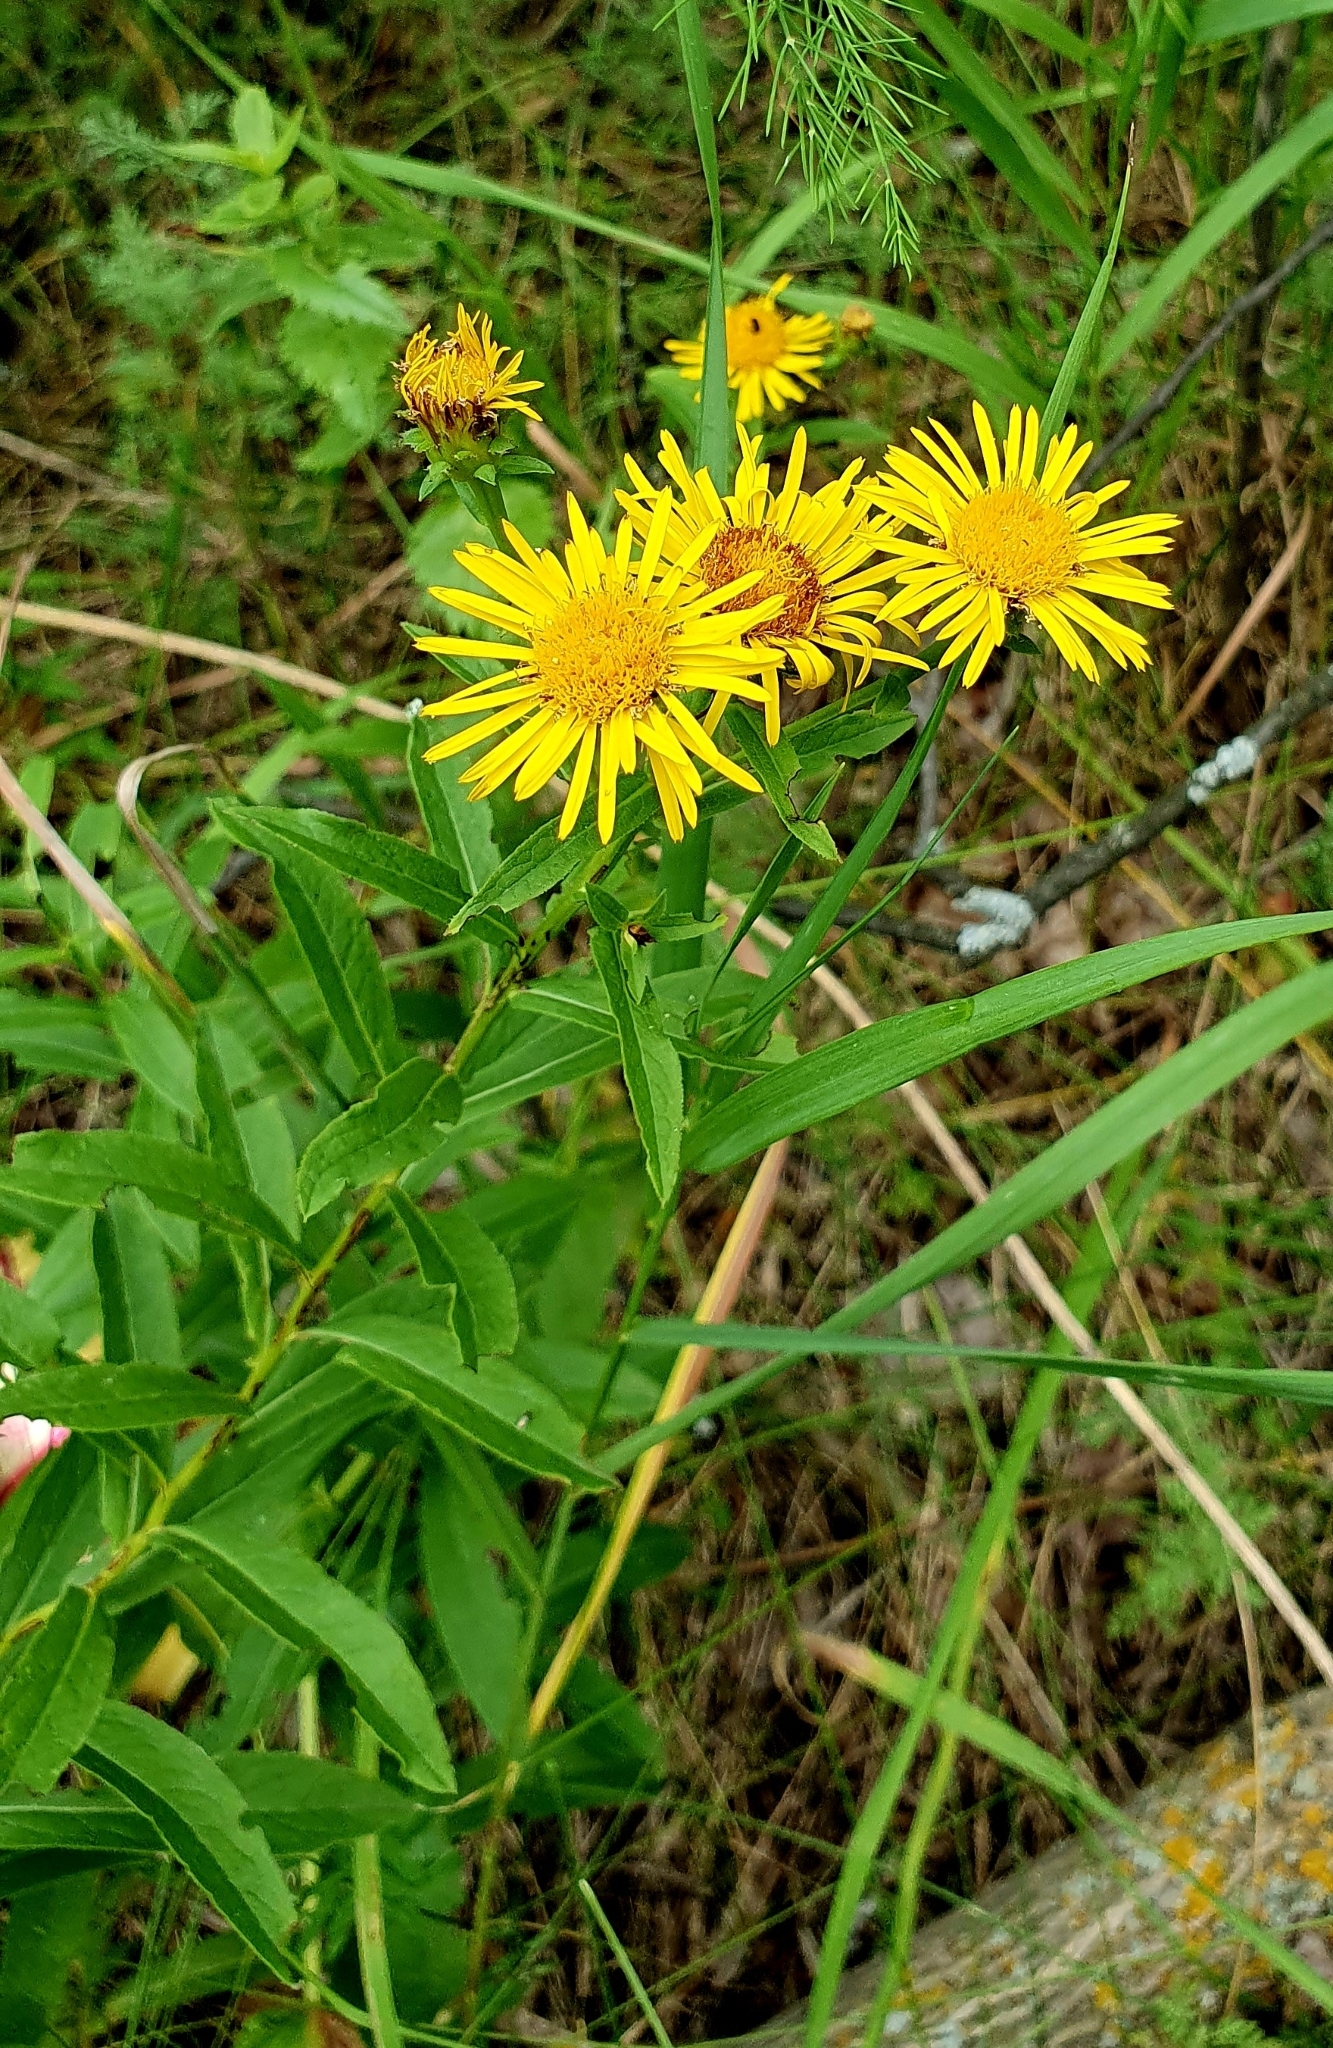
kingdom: Plantae
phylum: Tracheophyta
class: Magnoliopsida
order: Asterales
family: Asteraceae
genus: Pentanema
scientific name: Pentanema salicinum
